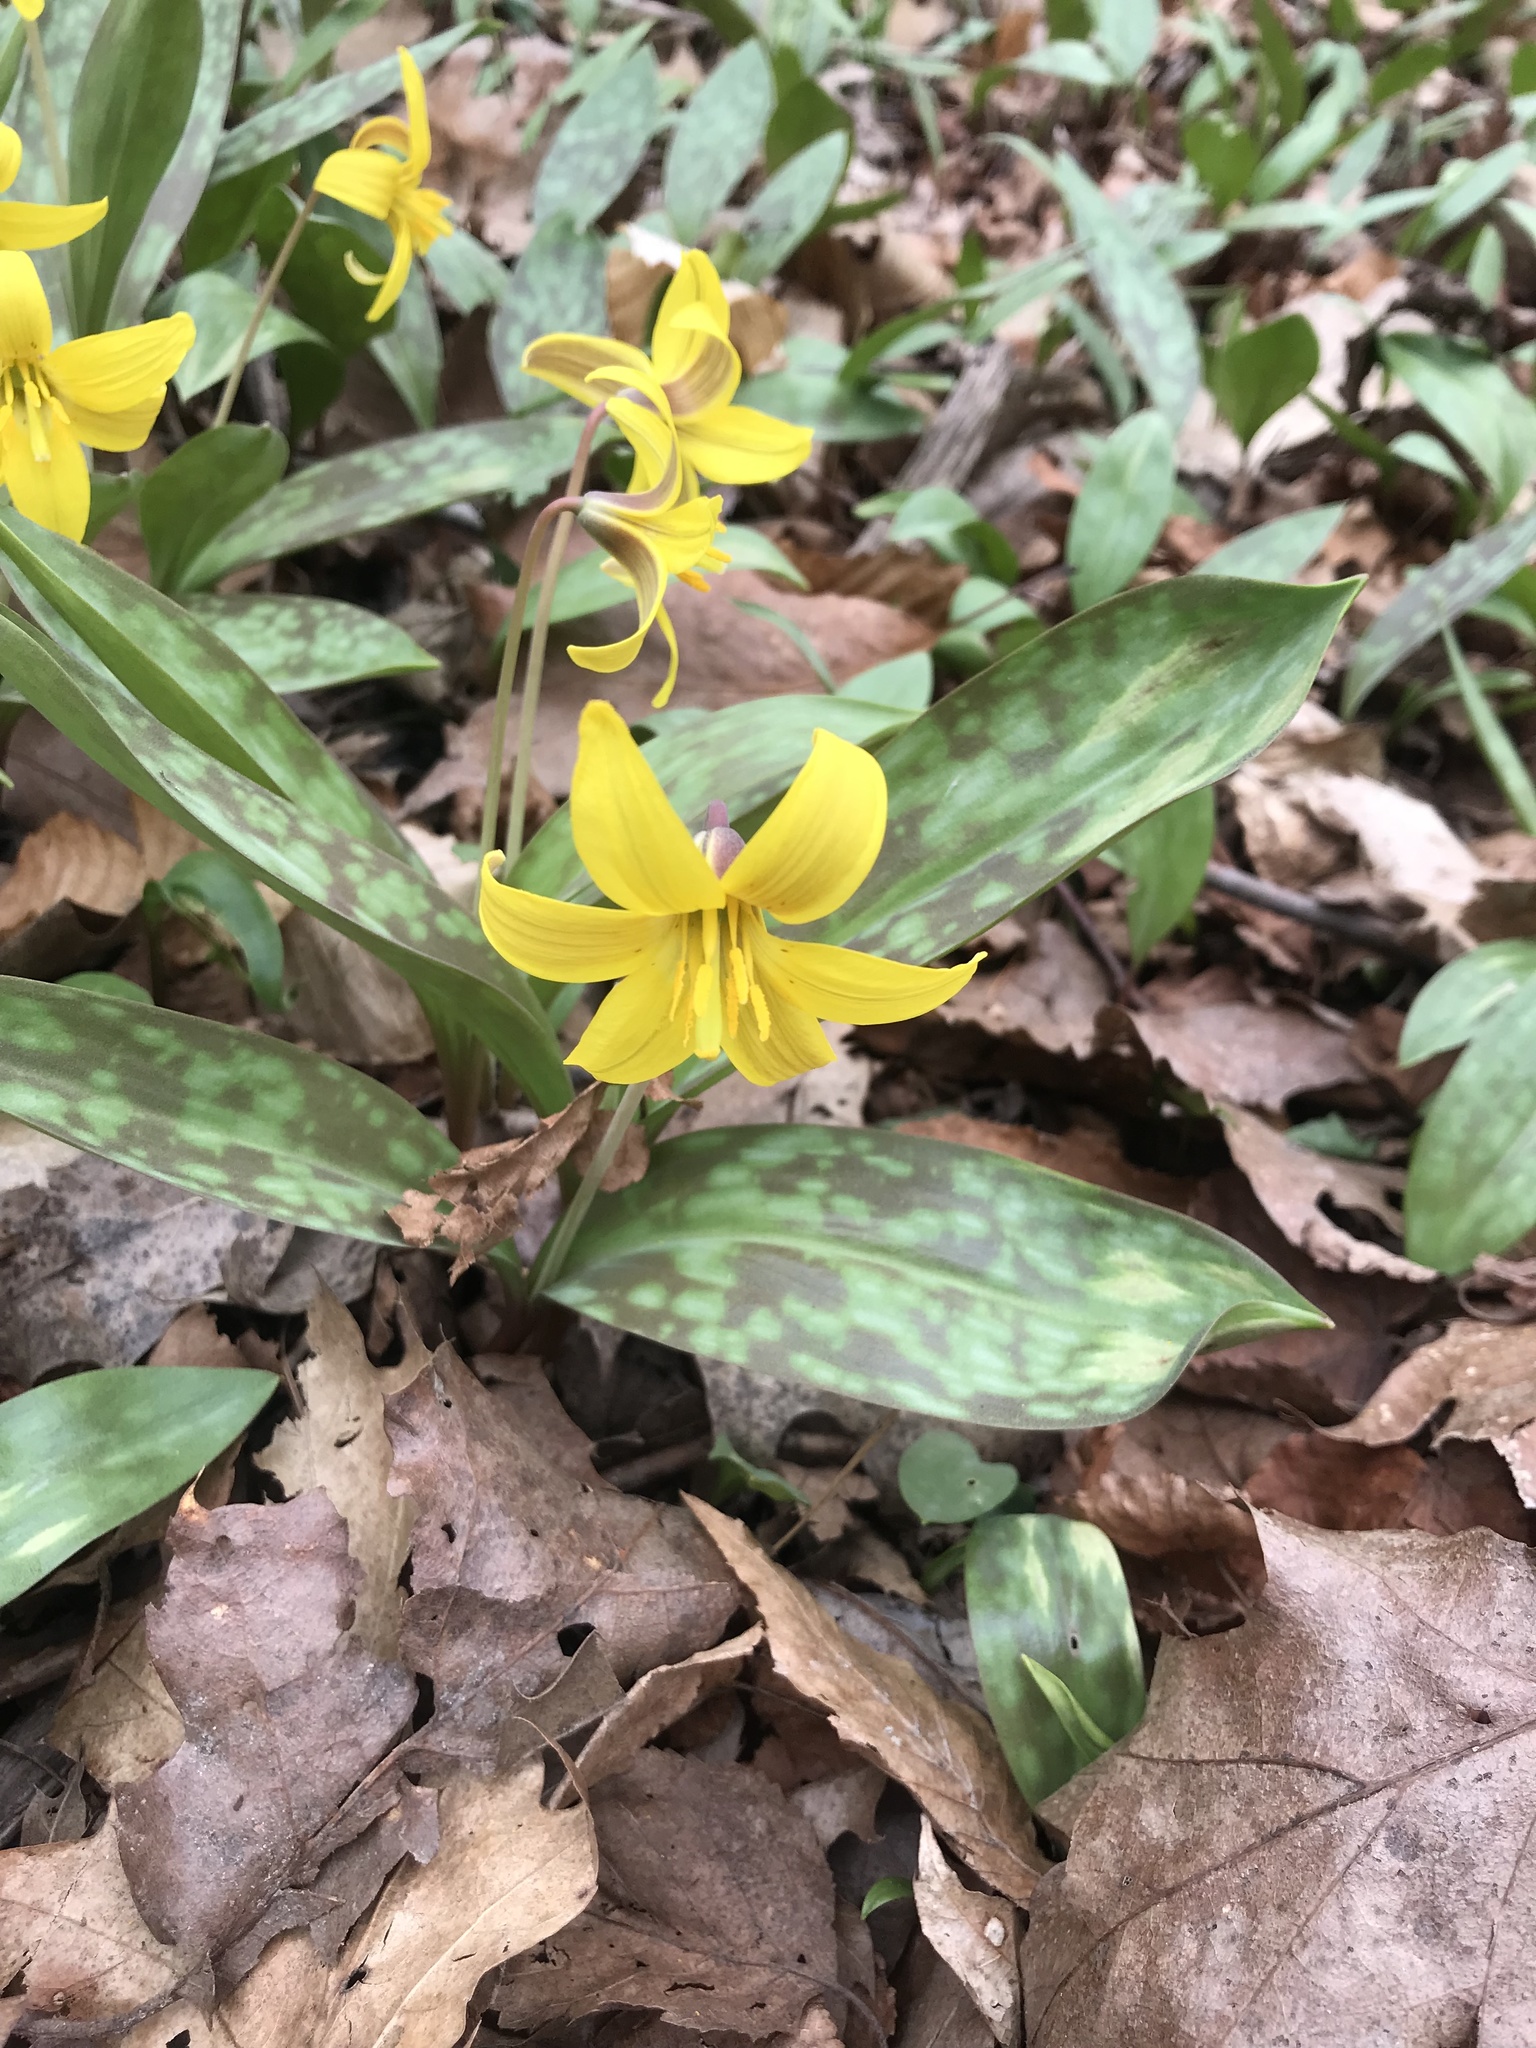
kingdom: Plantae
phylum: Tracheophyta
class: Liliopsida
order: Liliales
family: Liliaceae
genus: Erythronium
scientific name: Erythronium americanum
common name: Yellow adder's-tongue
